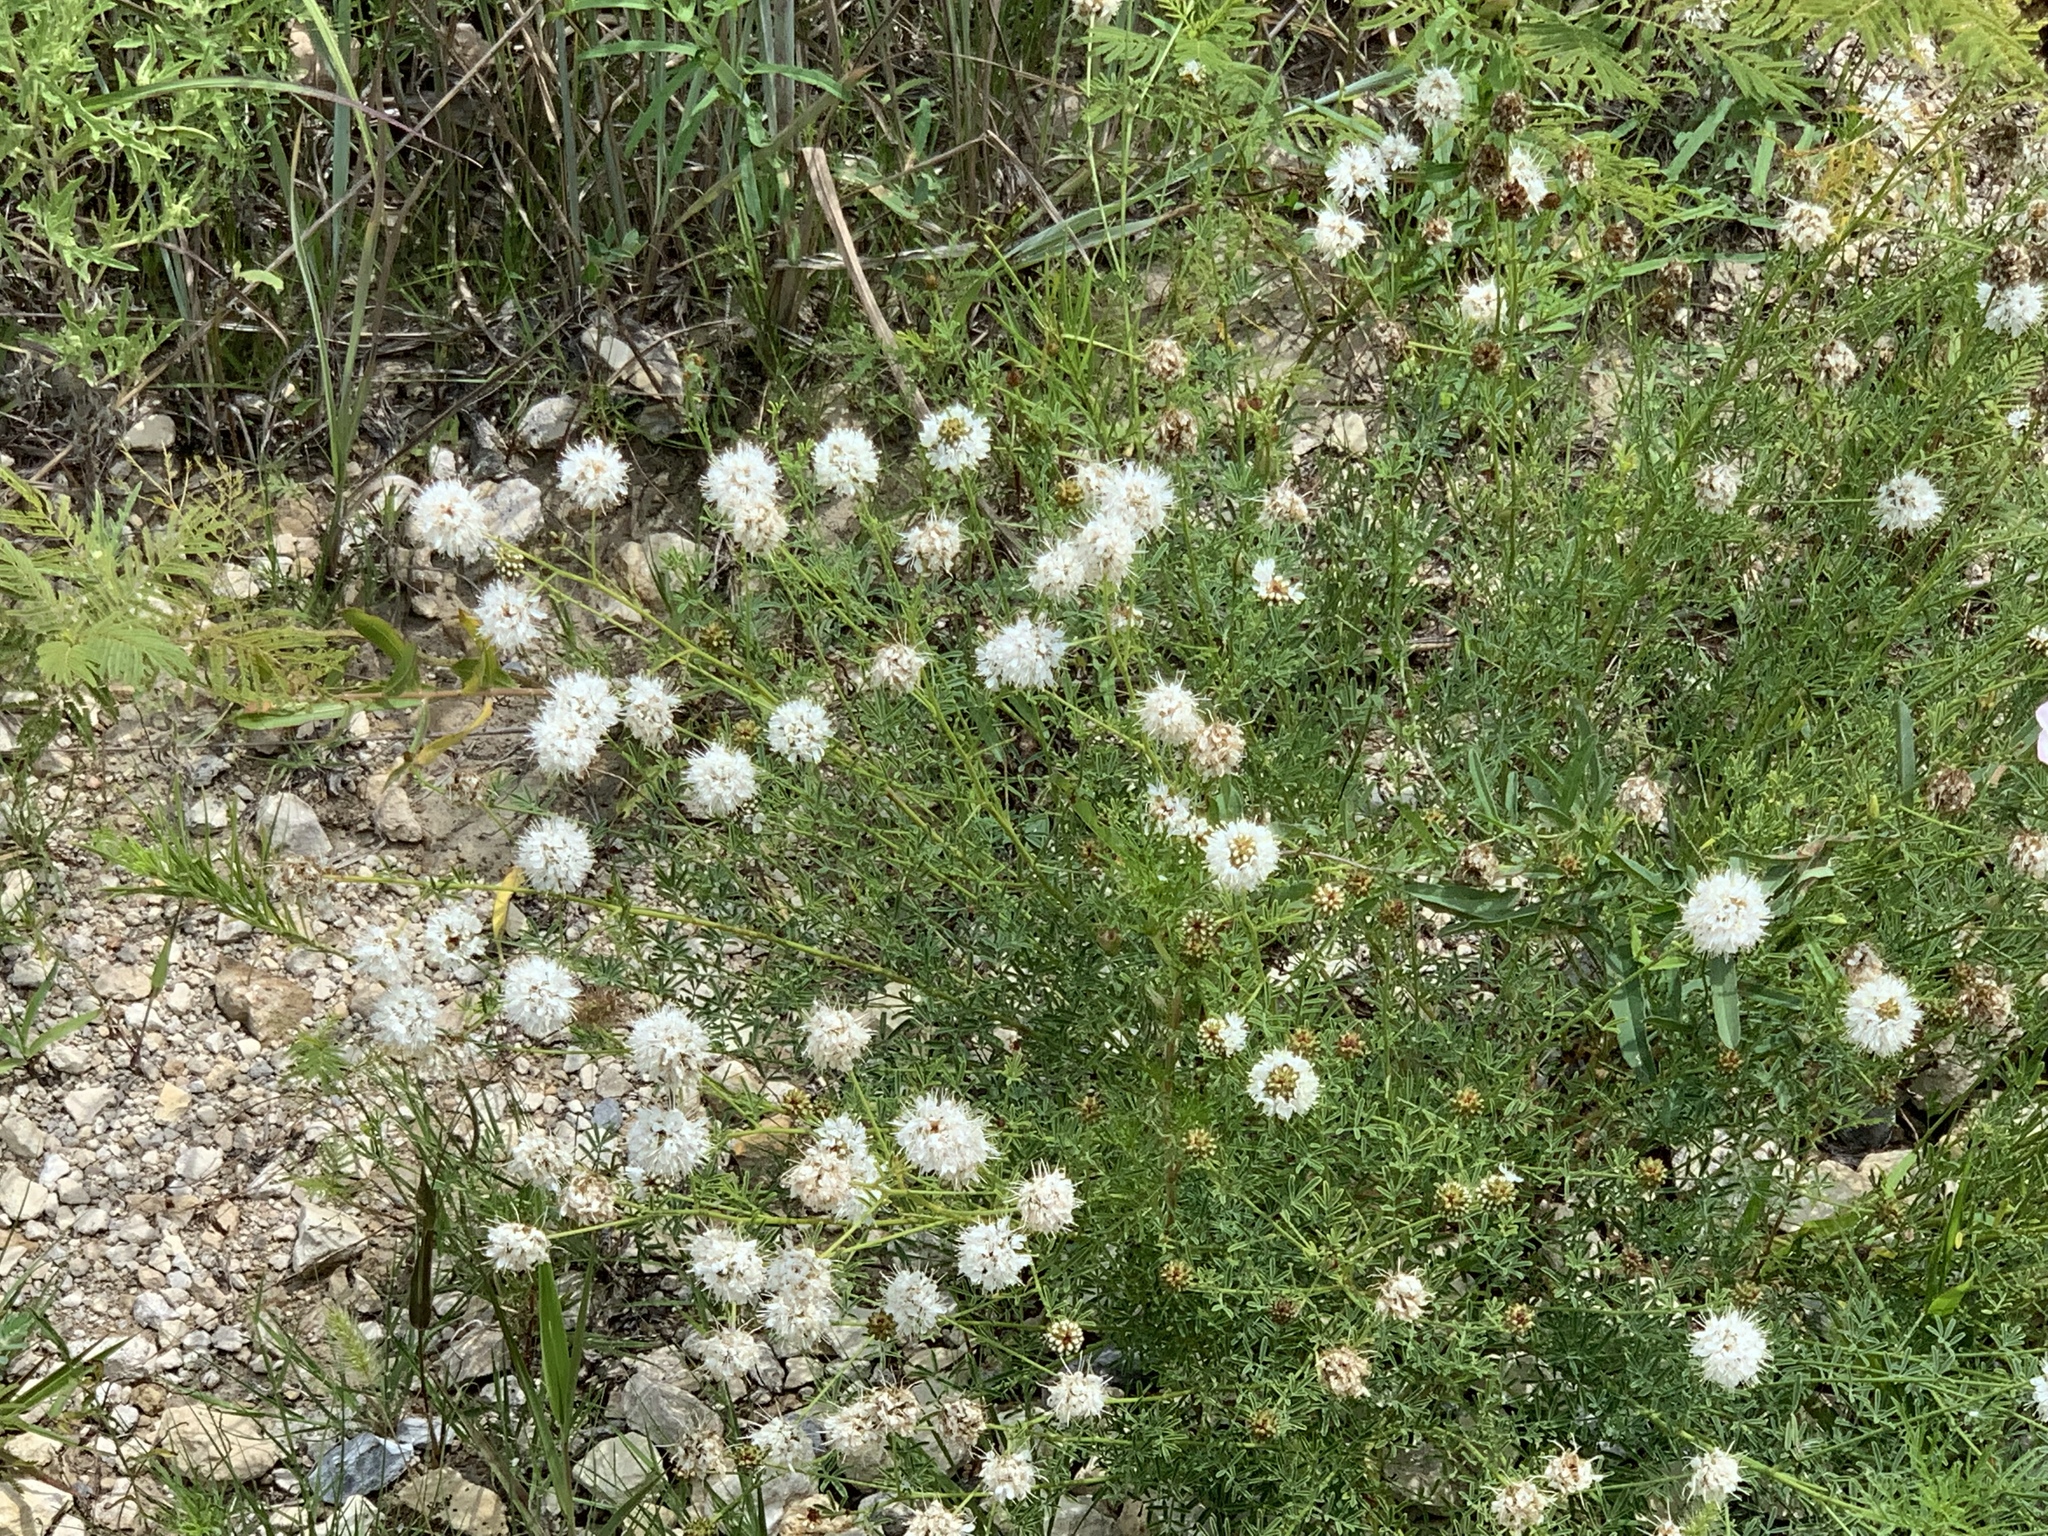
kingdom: Plantae
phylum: Tracheophyta
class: Magnoliopsida
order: Fabales
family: Fabaceae
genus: Dalea
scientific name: Dalea multiflora
